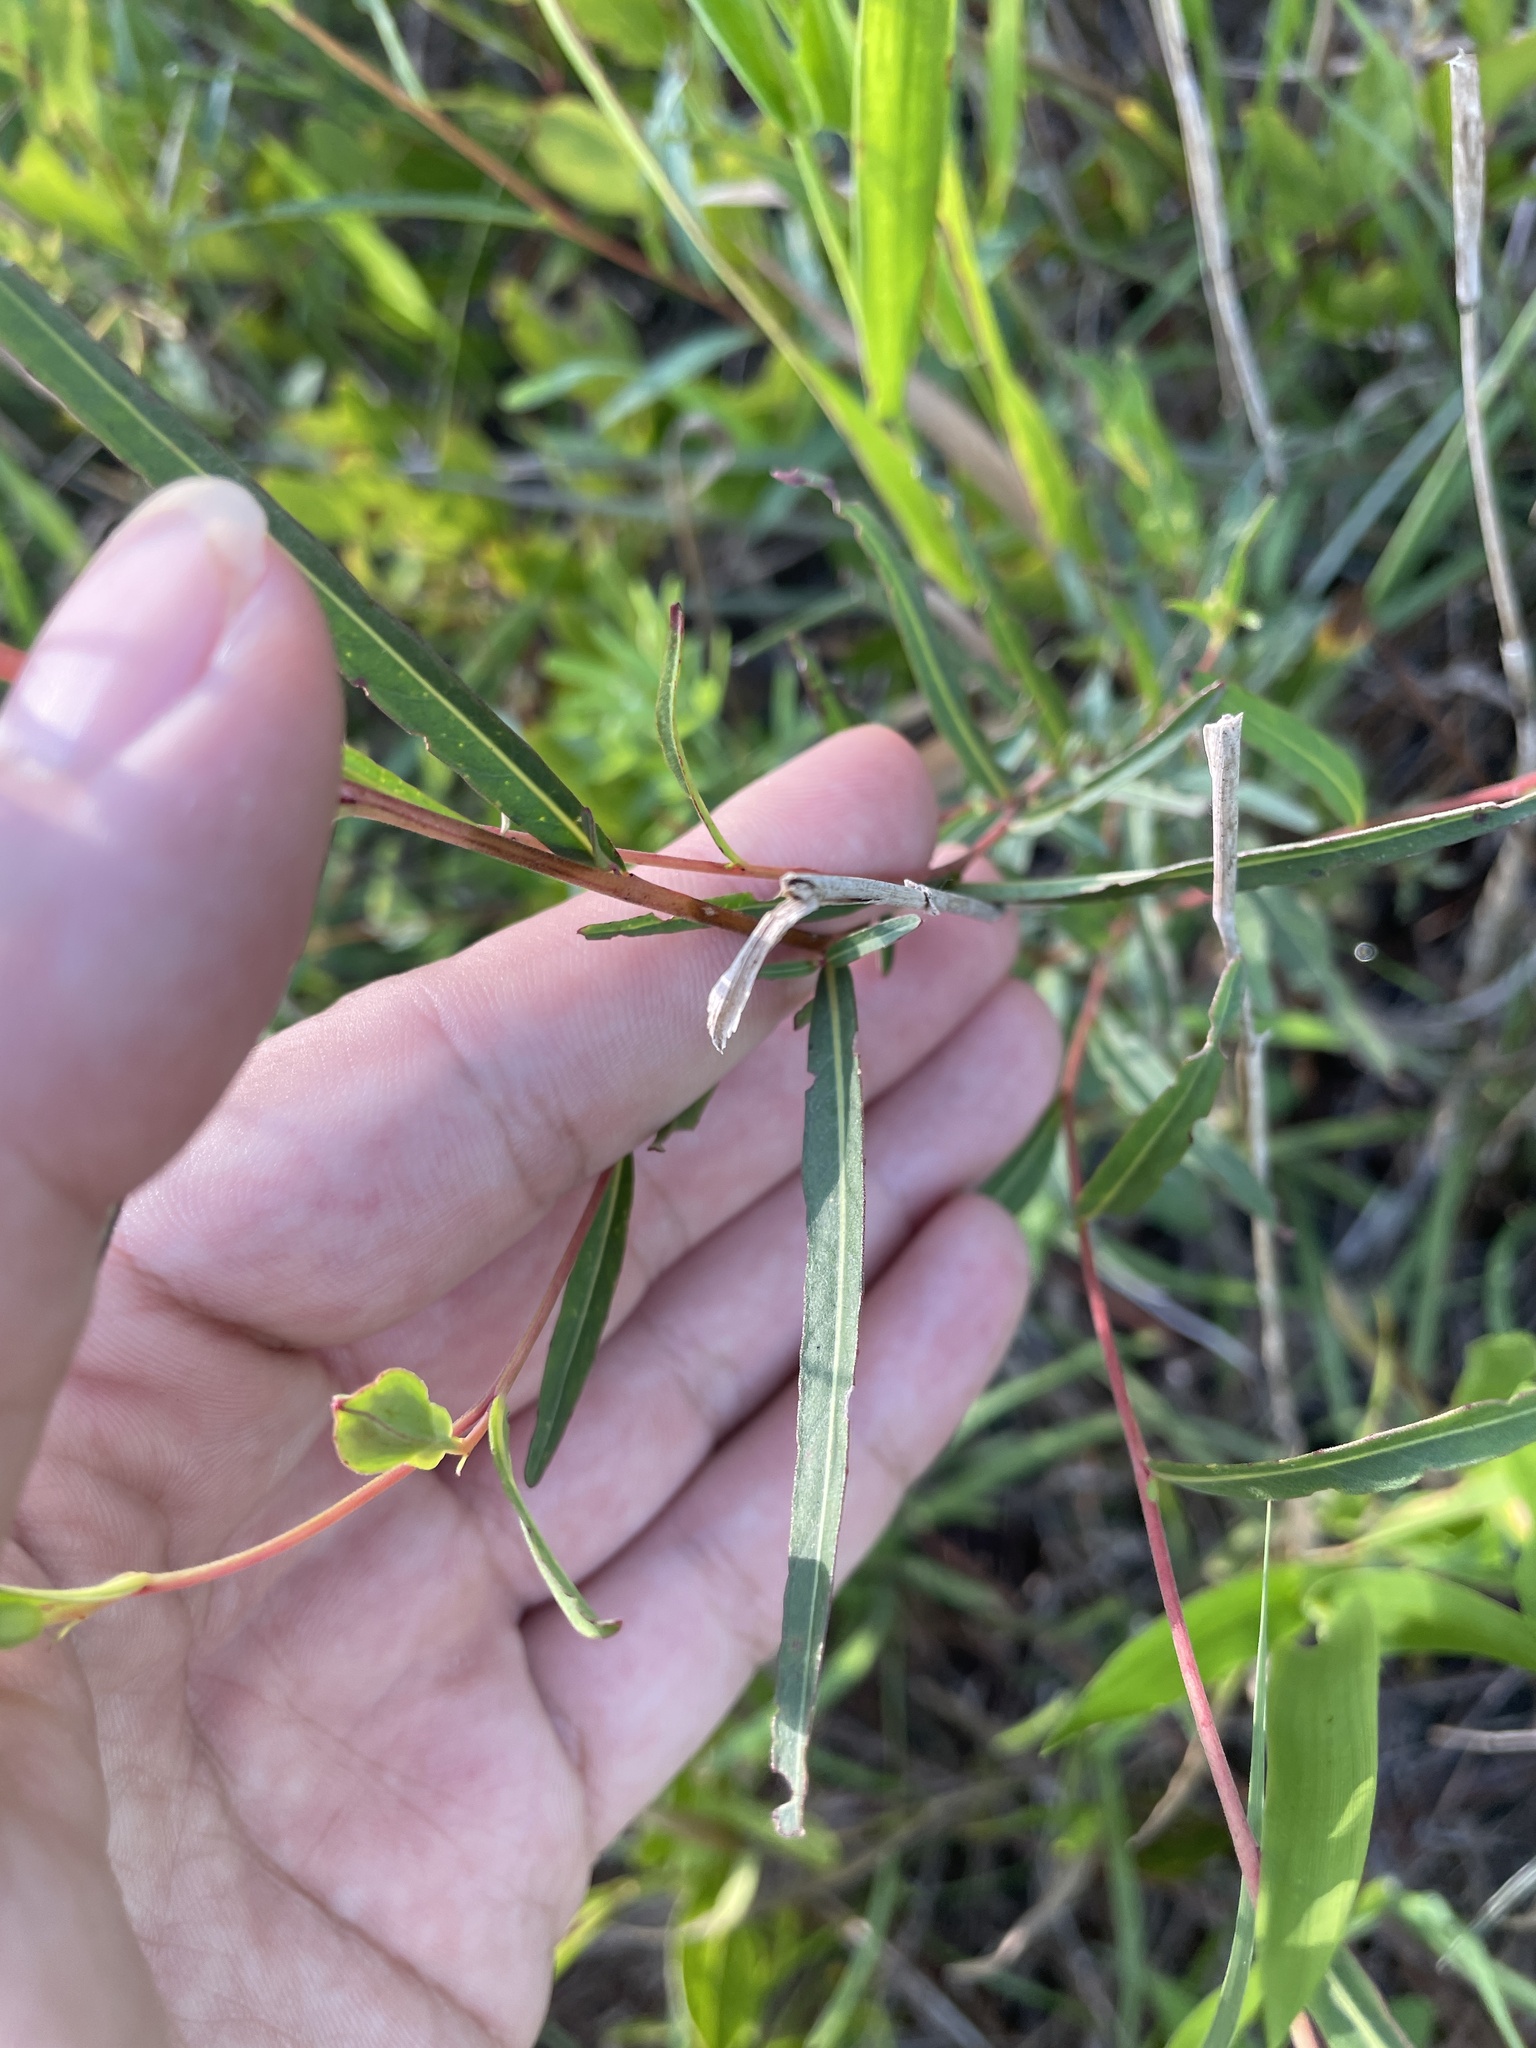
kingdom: Plantae
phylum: Tracheophyta
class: Magnoliopsida
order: Myrtales
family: Onagraceae
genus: Ludwigia
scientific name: Ludwigia virgata
